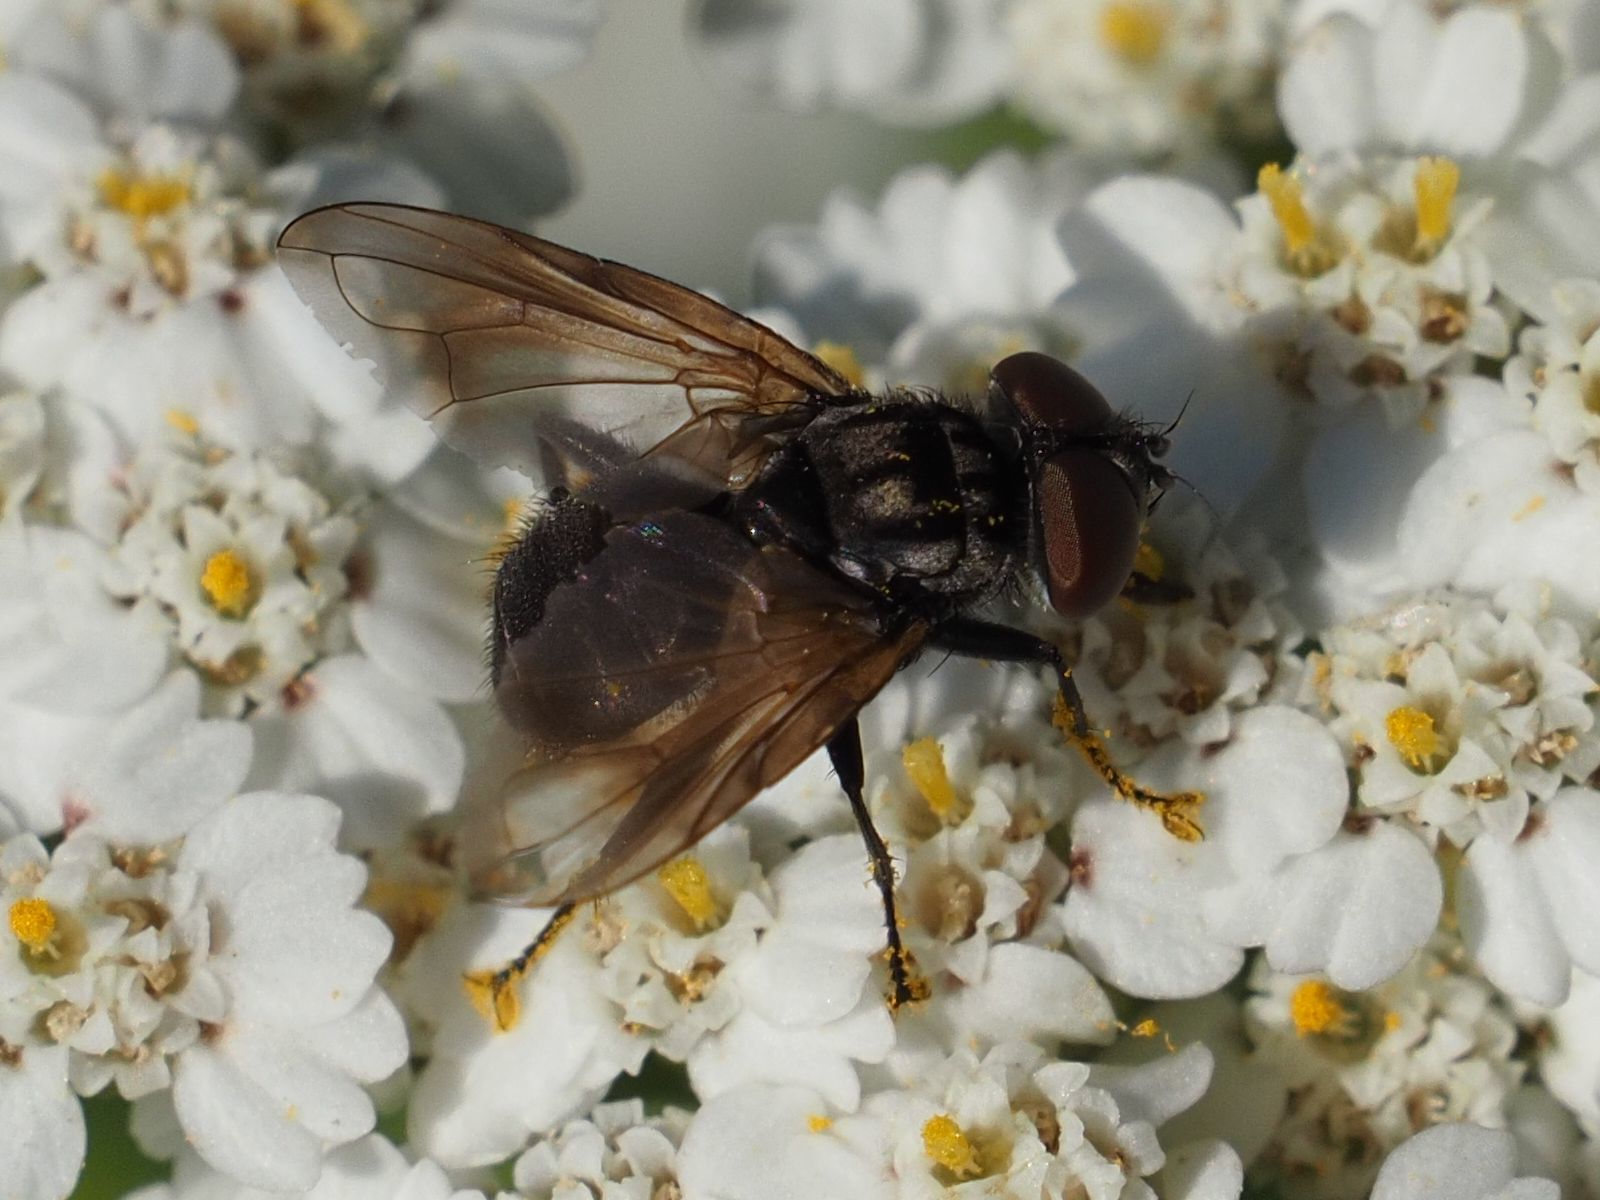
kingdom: Animalia
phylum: Arthropoda
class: Insecta
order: Diptera
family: Tachinidae
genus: Phasia
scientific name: Phasia obesa
